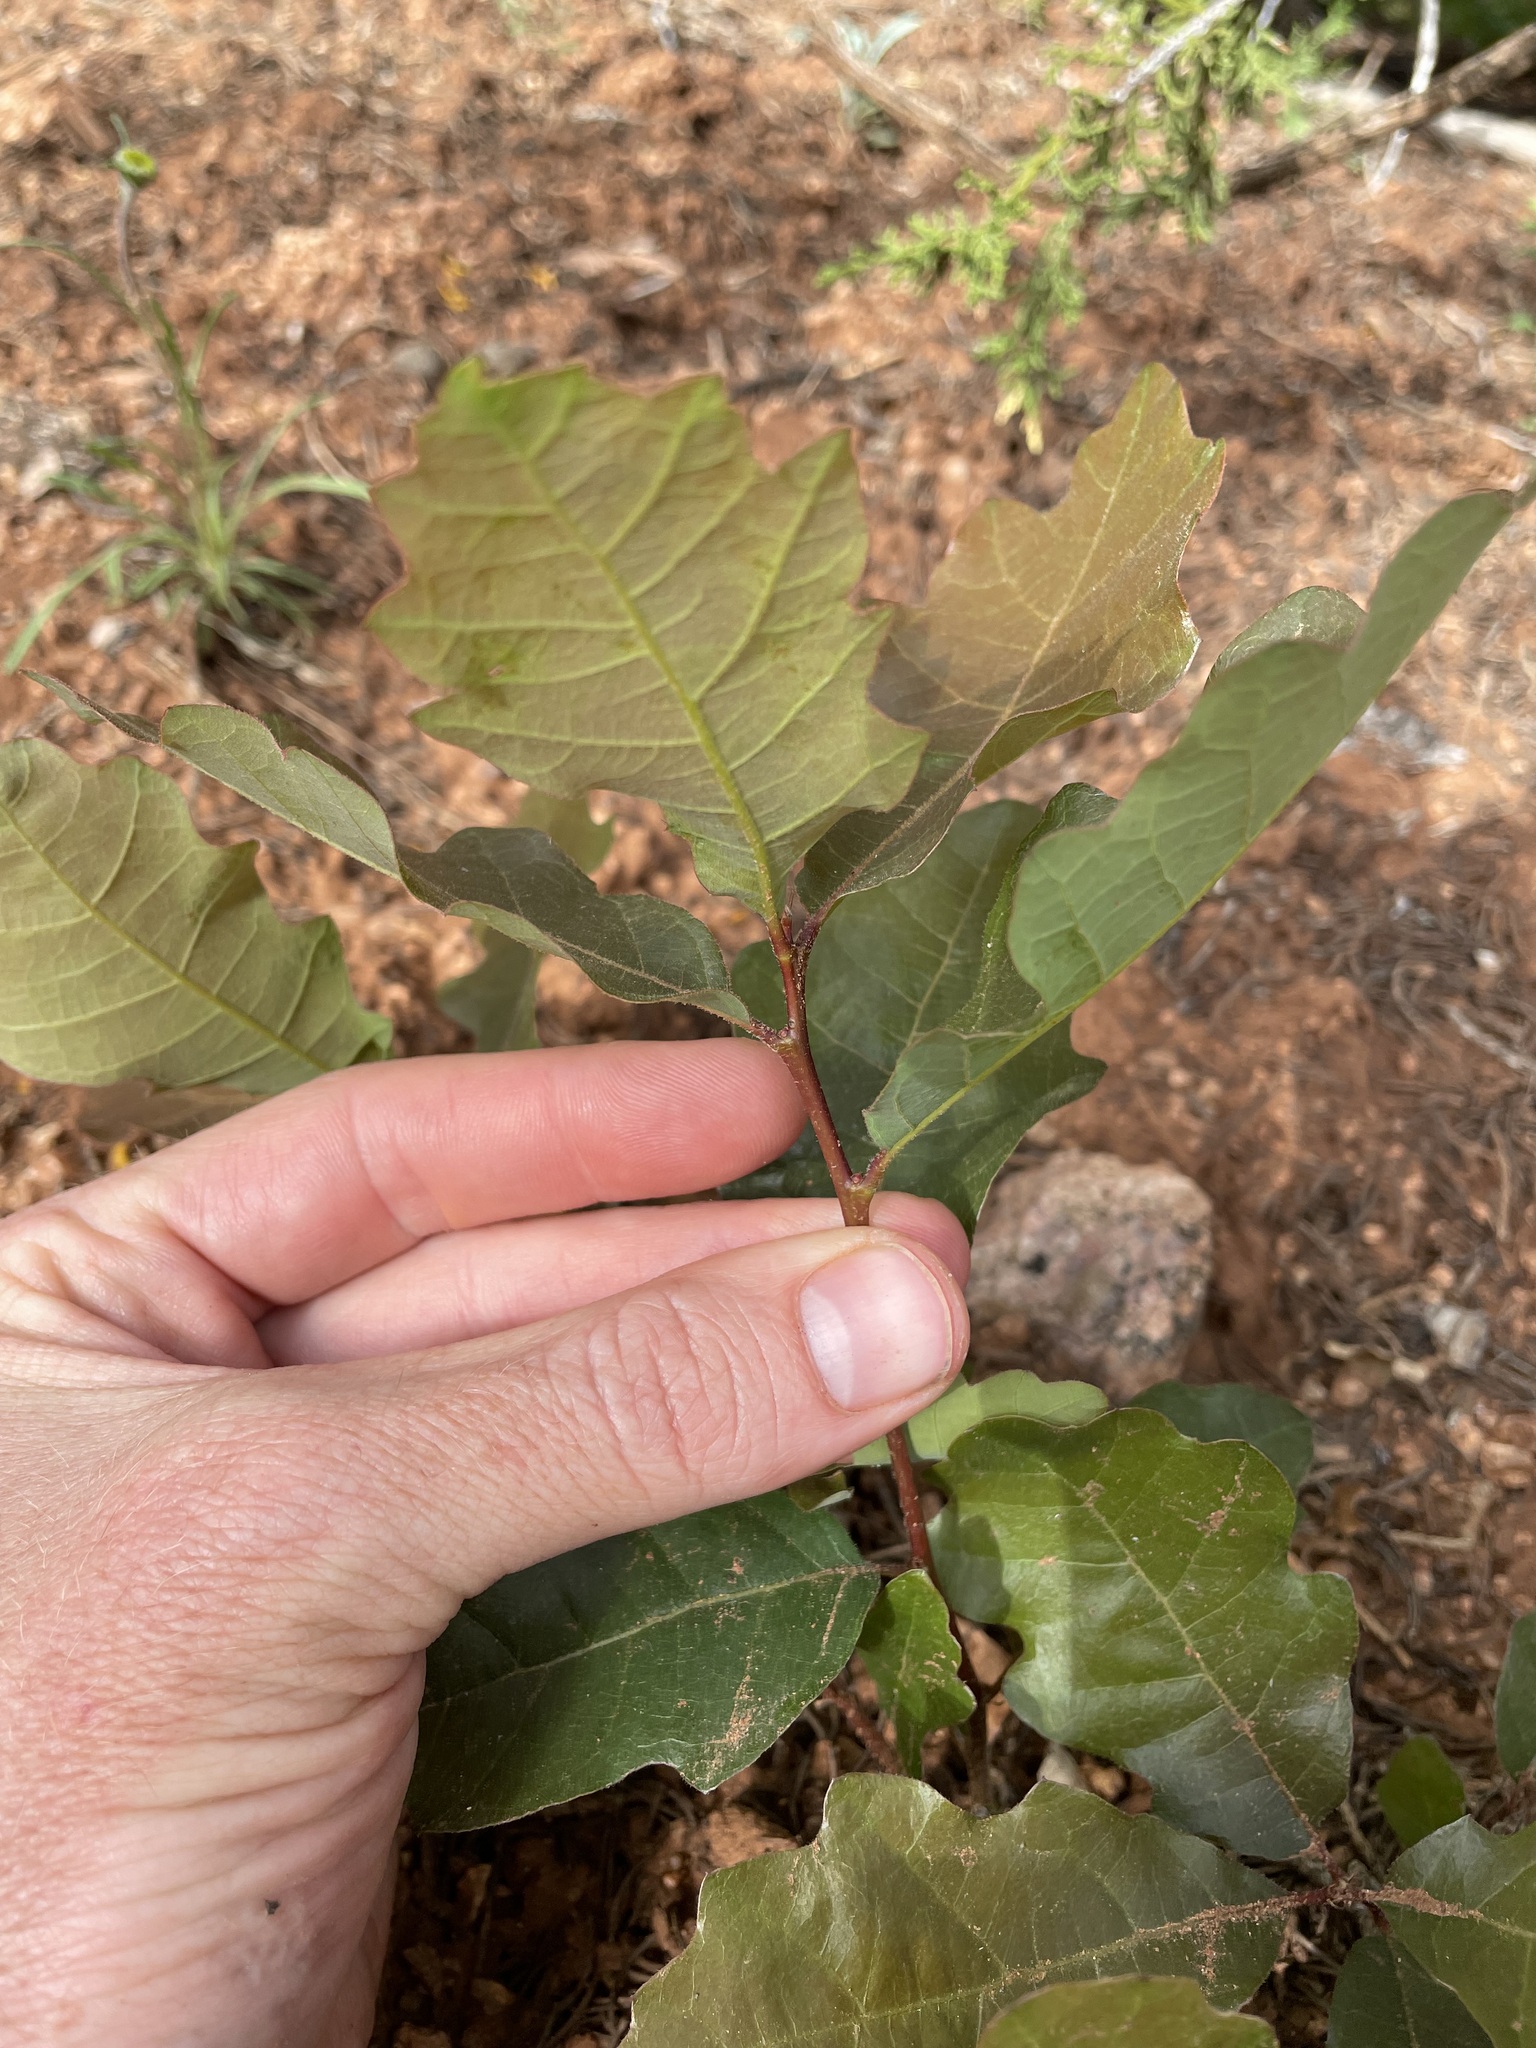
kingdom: Plantae
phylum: Tracheophyta
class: Magnoliopsida
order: Fagales
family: Fagaceae
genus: Quercus
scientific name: Quercus gambelii
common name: Gambel oak
